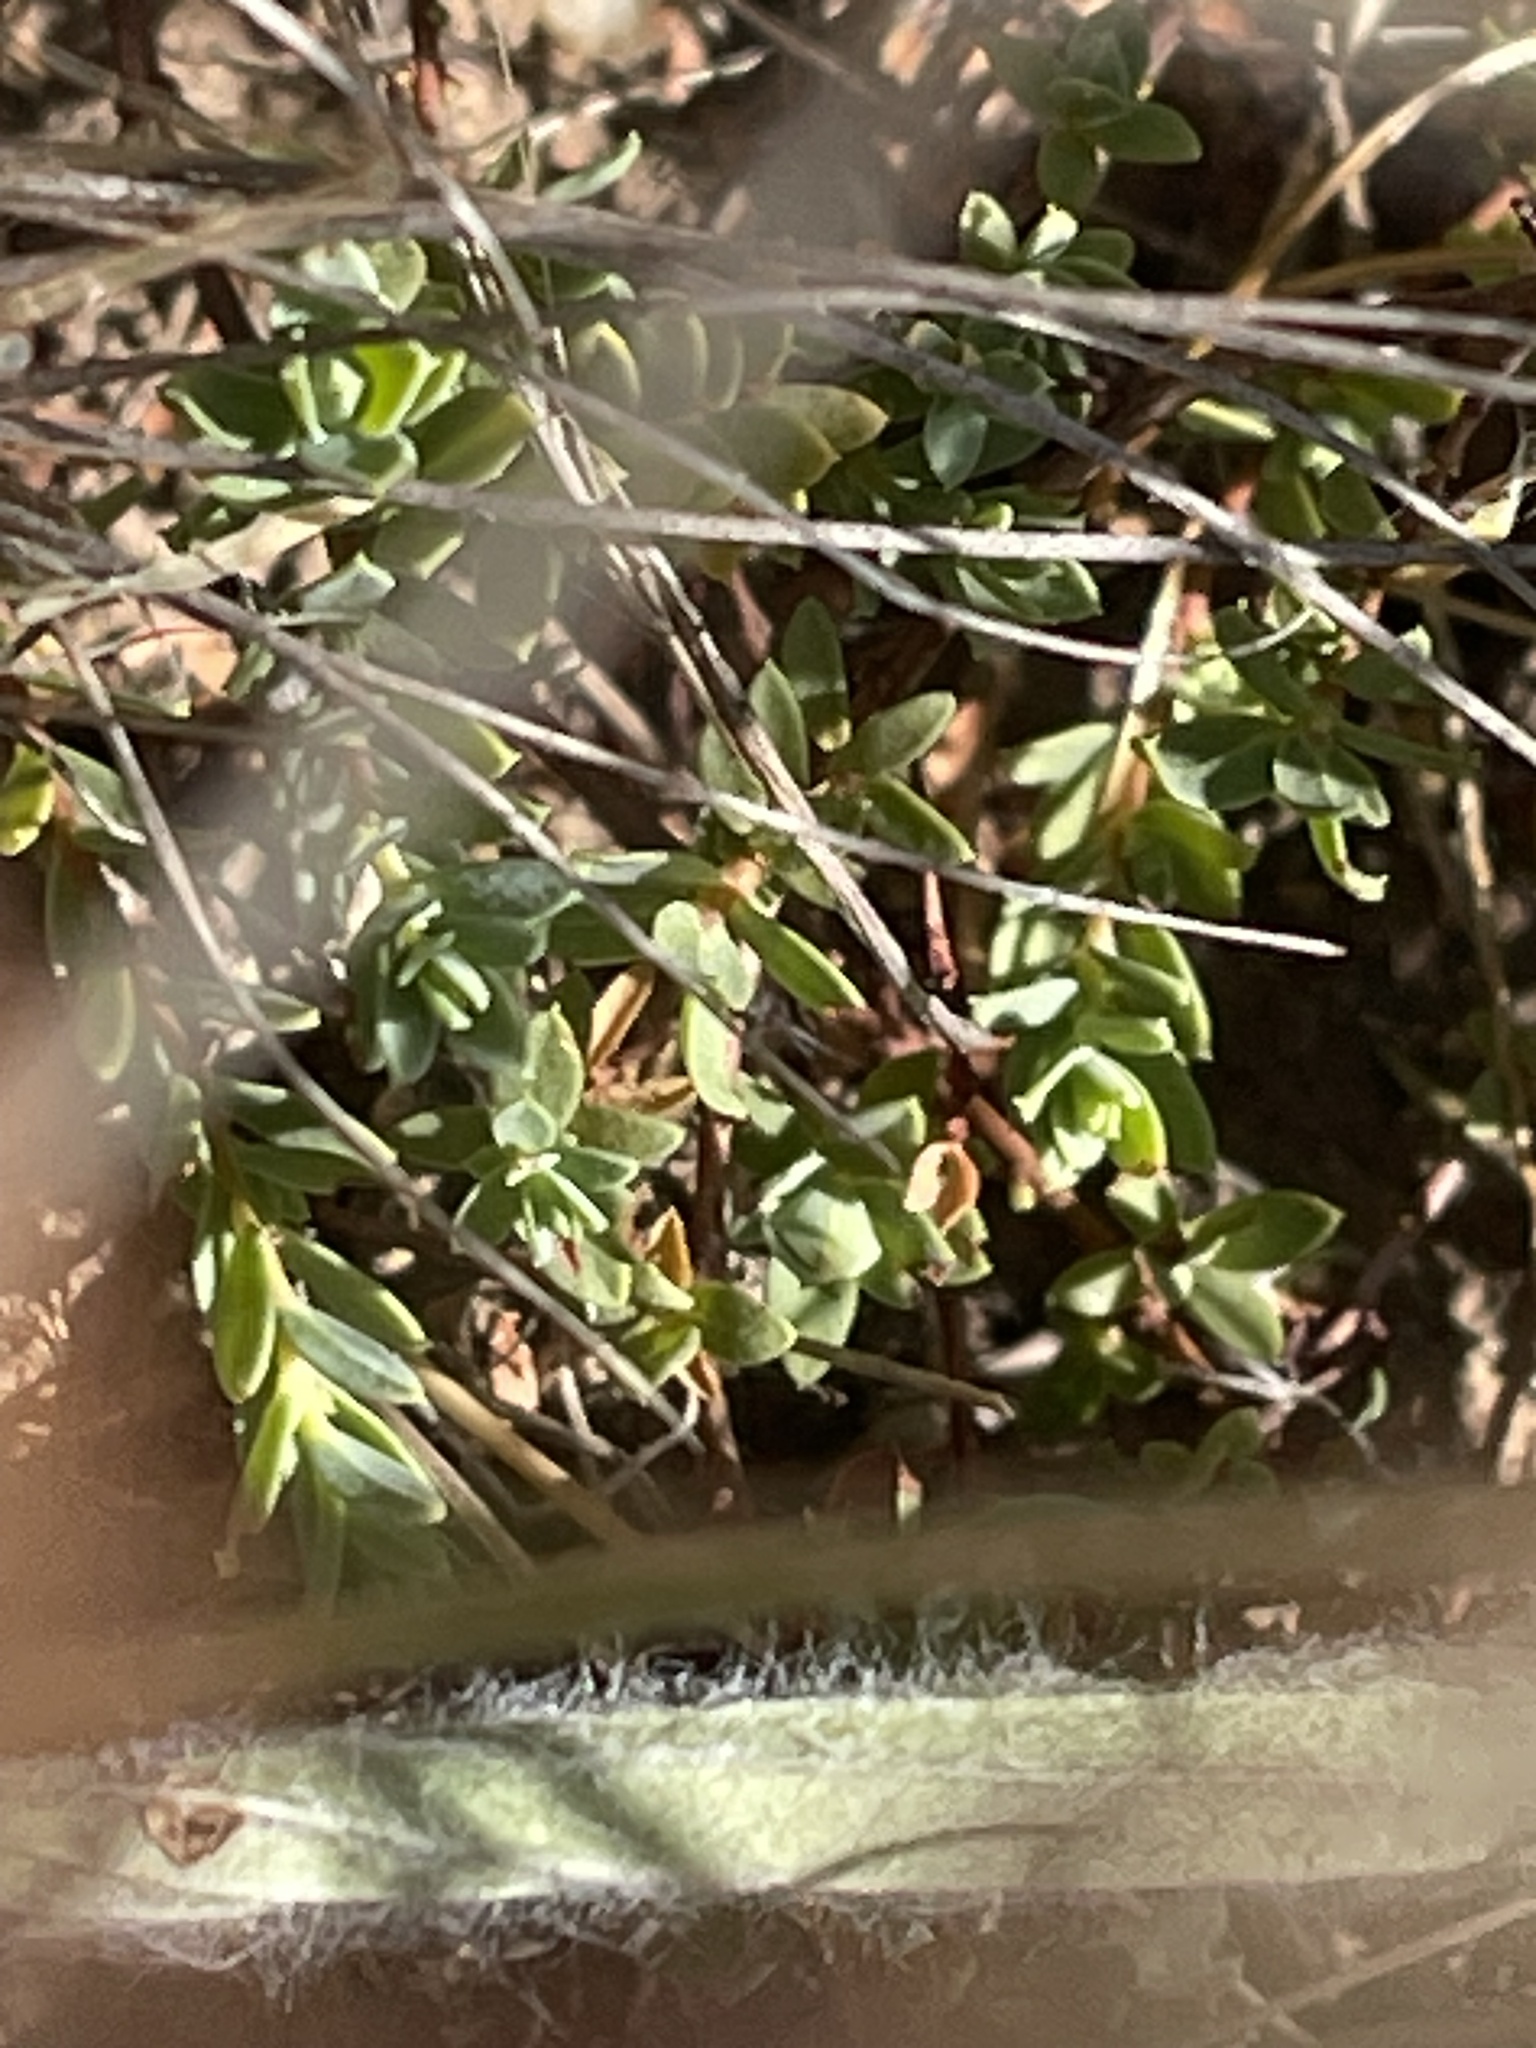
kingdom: Plantae
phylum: Tracheophyta
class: Magnoliopsida
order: Malvales
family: Thymelaeaceae
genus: Pimelea
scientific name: Pimelea spinescens
